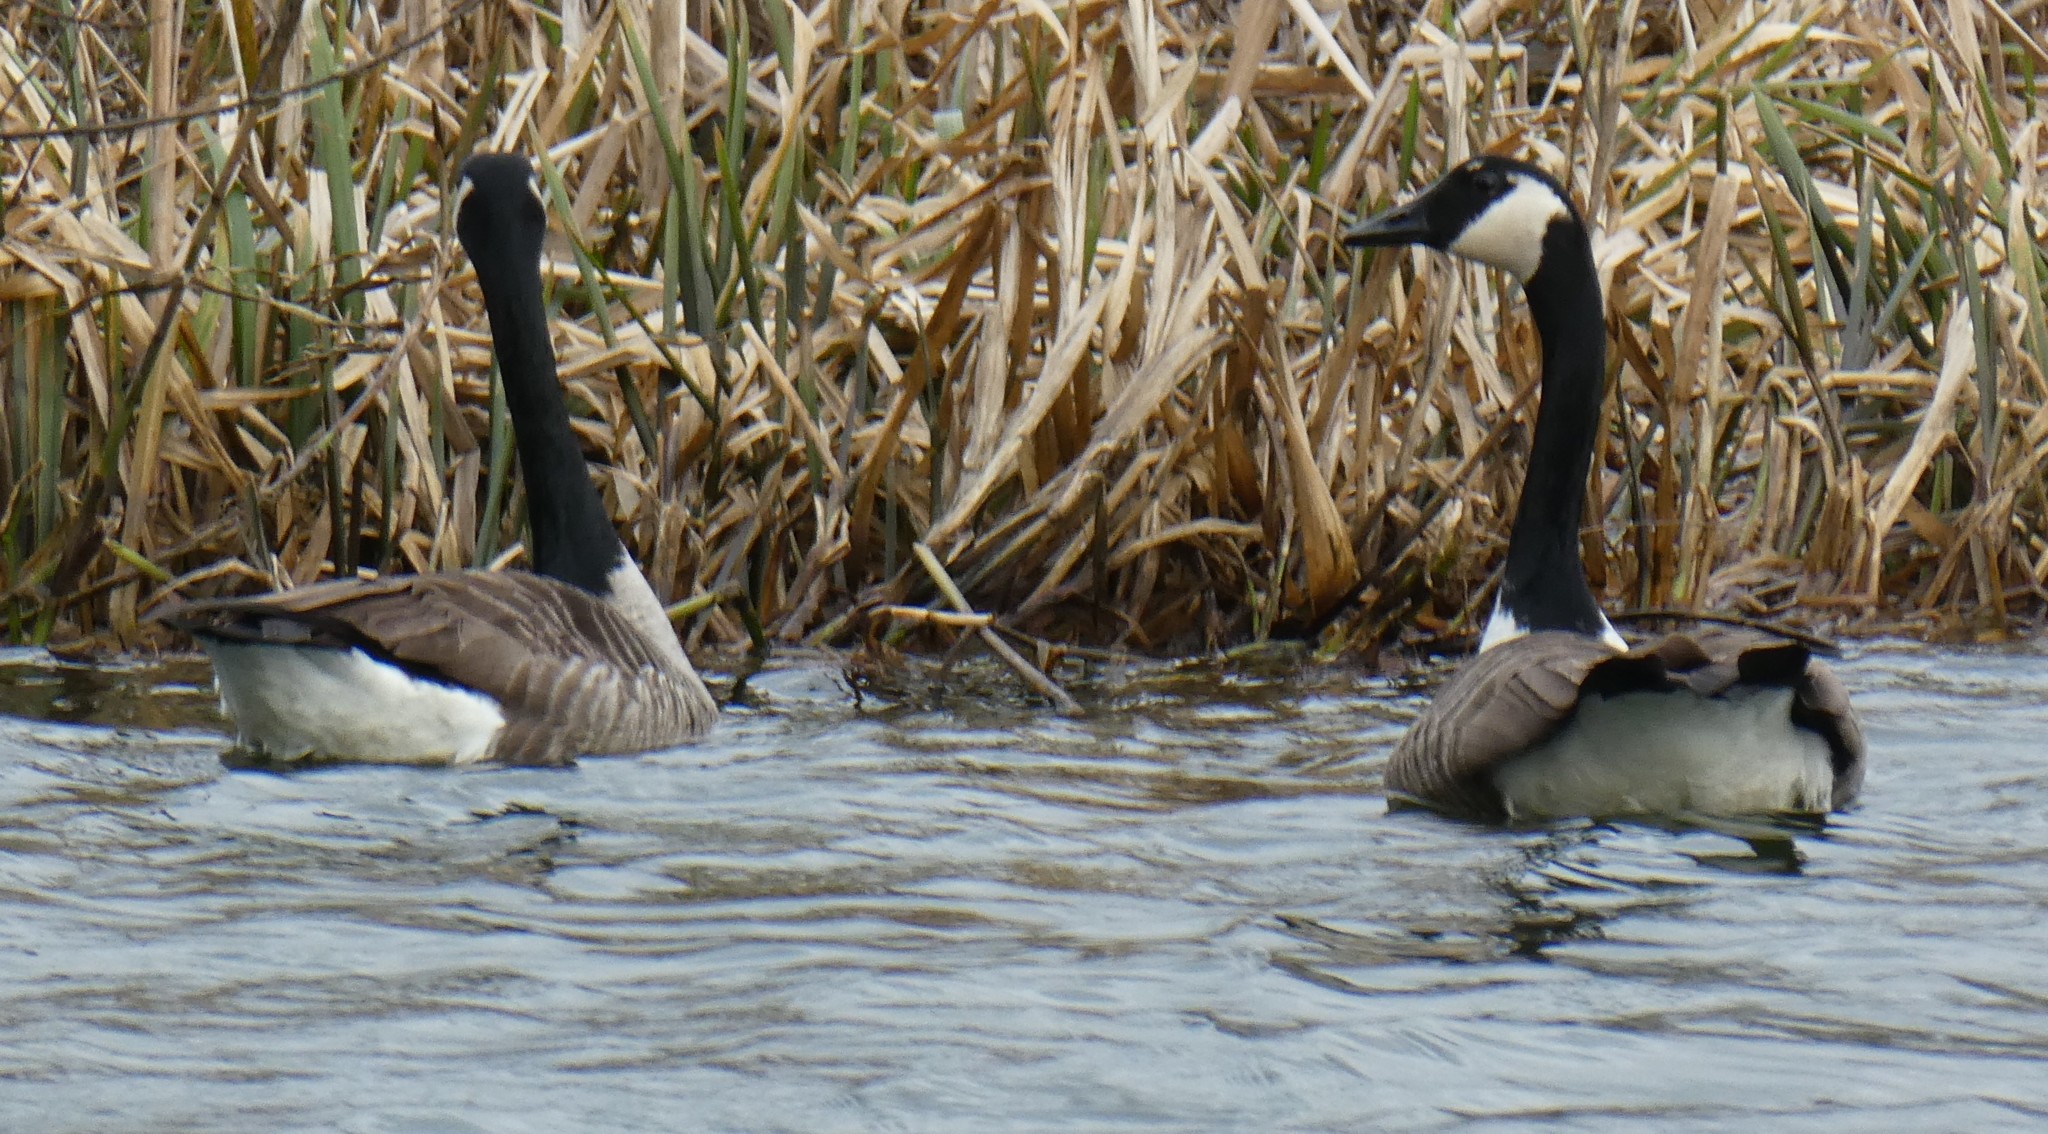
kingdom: Animalia
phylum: Chordata
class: Aves
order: Anseriformes
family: Anatidae
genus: Branta
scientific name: Branta canadensis
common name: Canada goose
